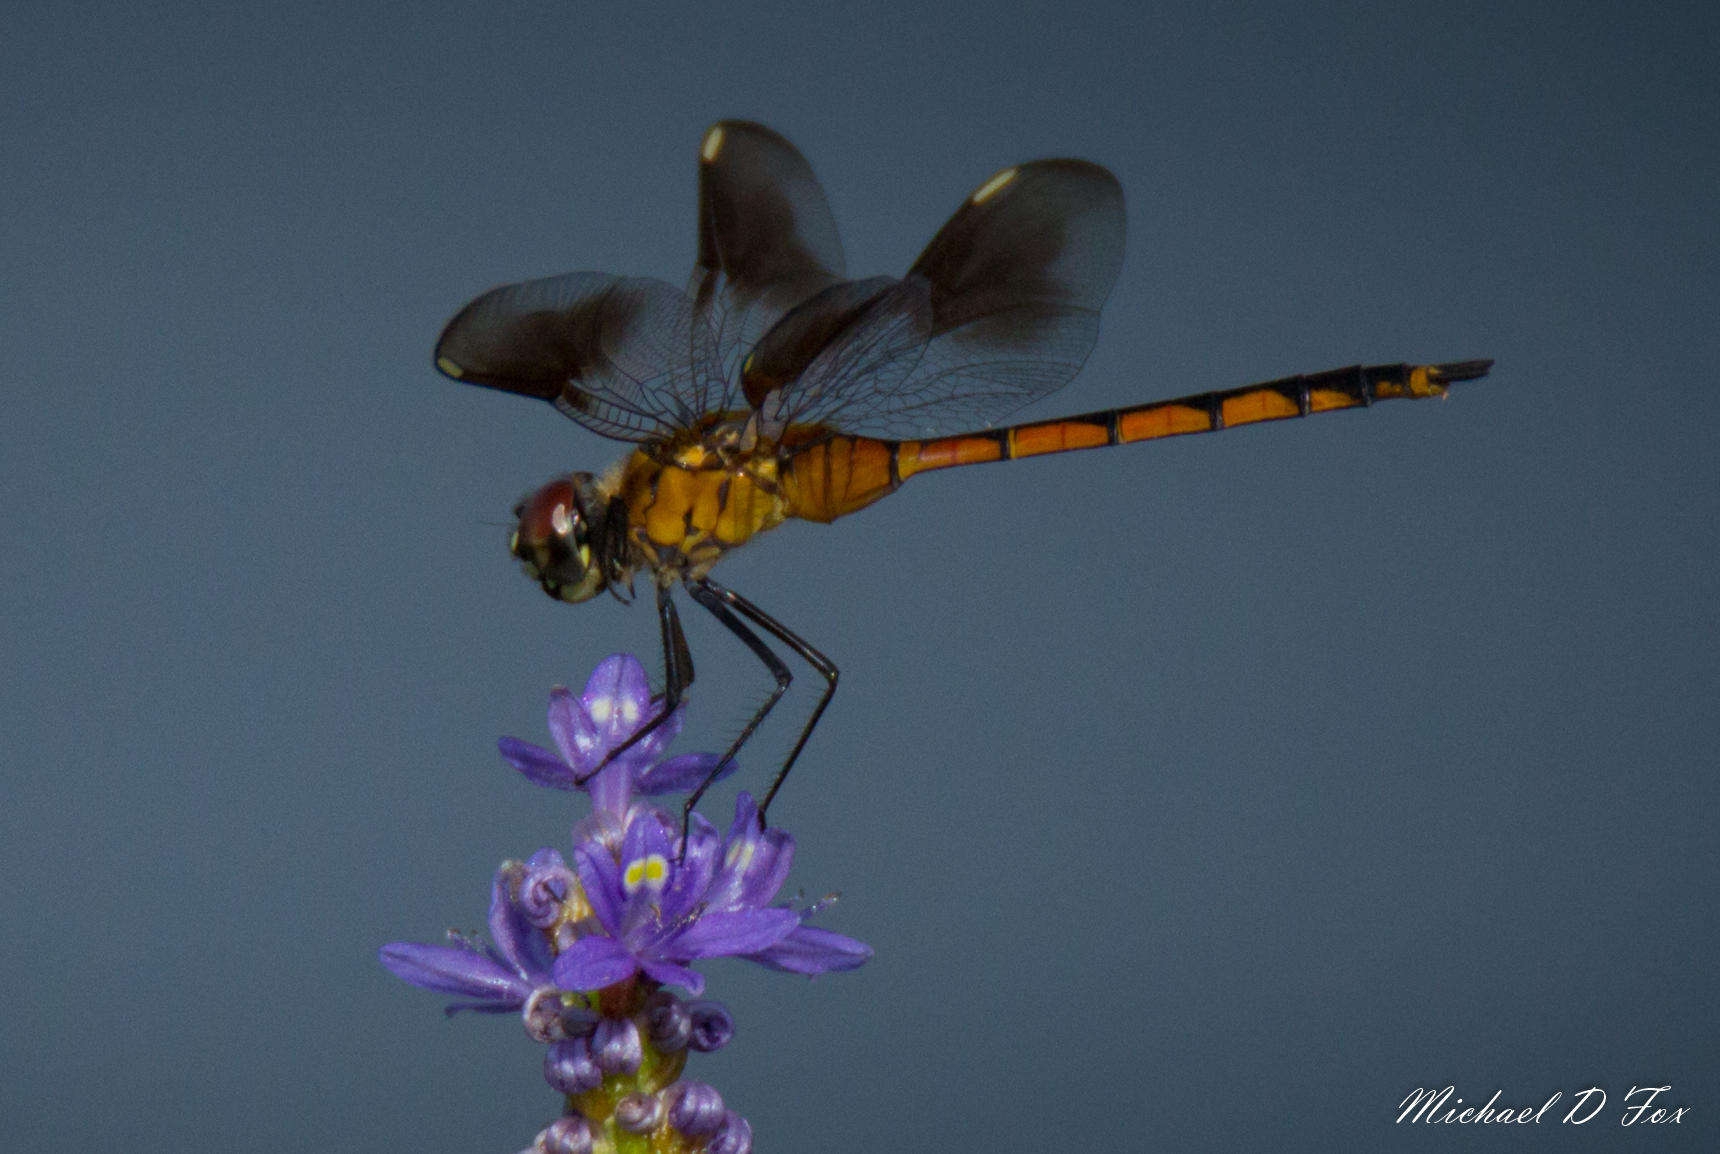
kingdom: Animalia
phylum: Arthropoda
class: Insecta
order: Odonata
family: Libellulidae
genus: Brachymesia
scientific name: Brachymesia gravida
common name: Four-spotted pennant
